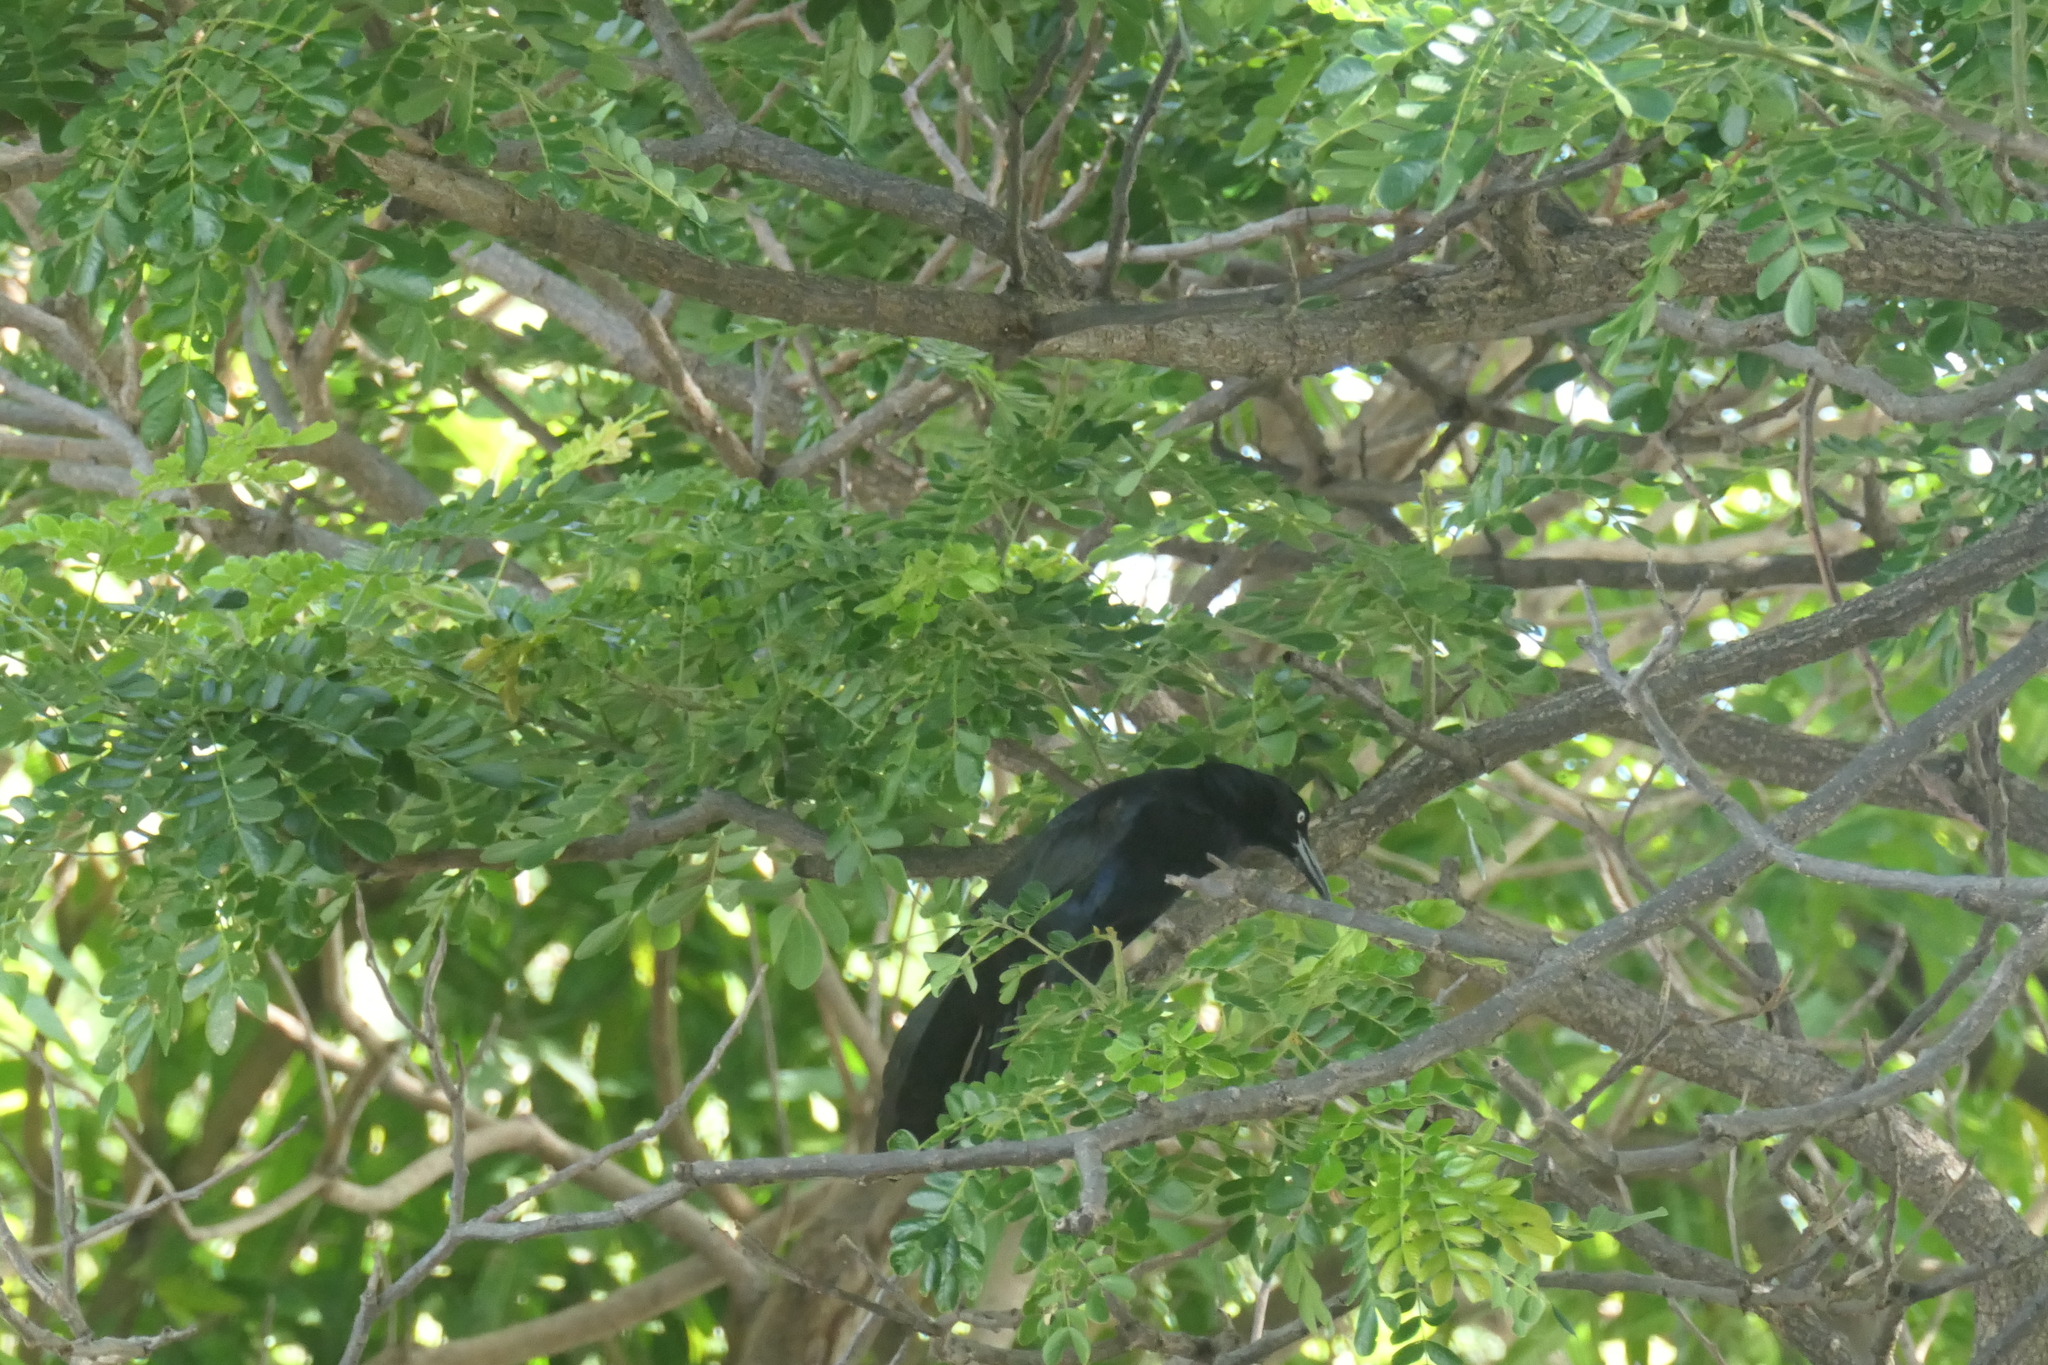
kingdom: Animalia
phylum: Chordata
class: Aves
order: Passeriformes
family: Icteridae
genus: Quiscalus
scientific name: Quiscalus mexicanus
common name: Great-tailed grackle
